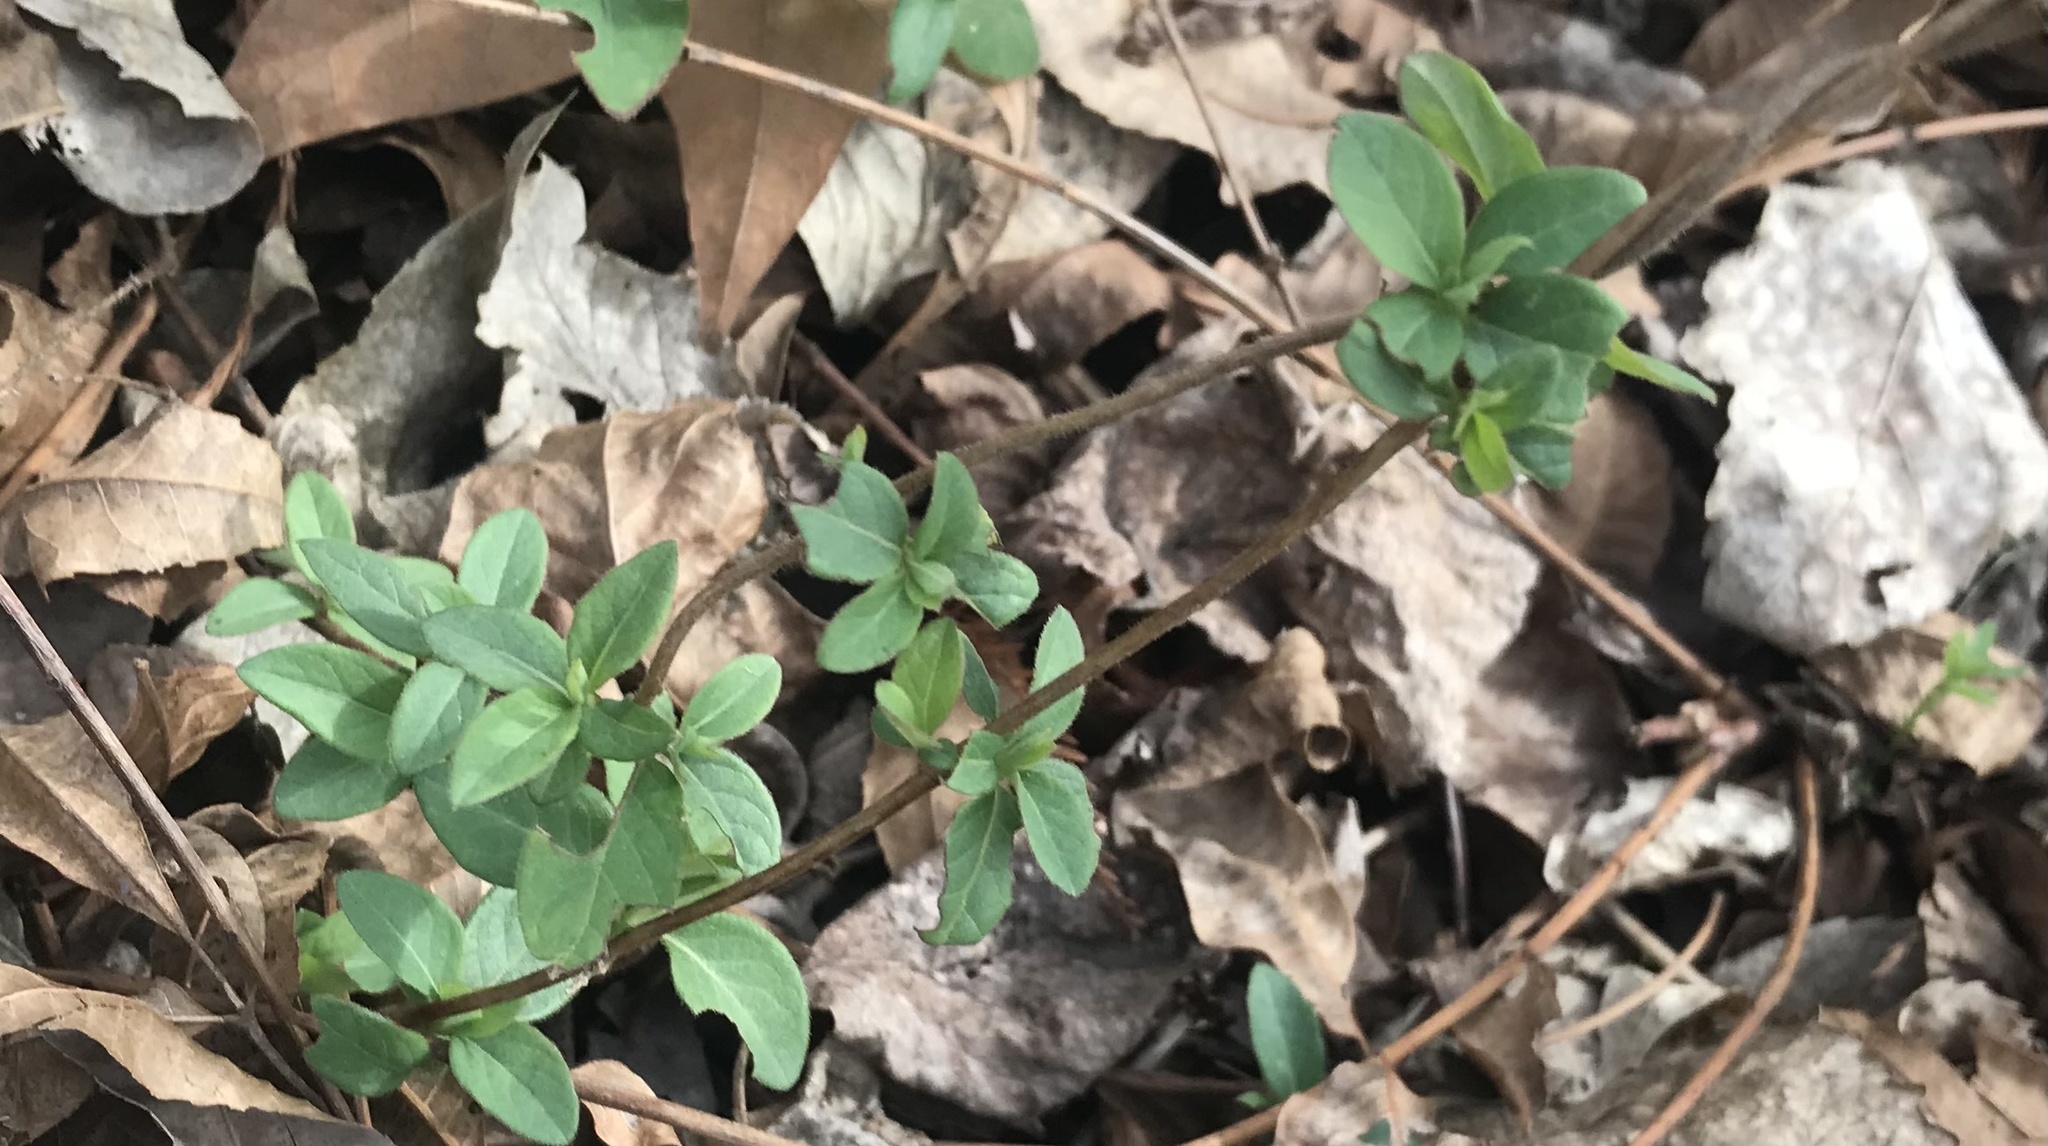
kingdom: Plantae
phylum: Tracheophyta
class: Magnoliopsida
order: Dipsacales
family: Caprifoliaceae
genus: Lonicera
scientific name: Lonicera japonica
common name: Japanese honeysuckle
